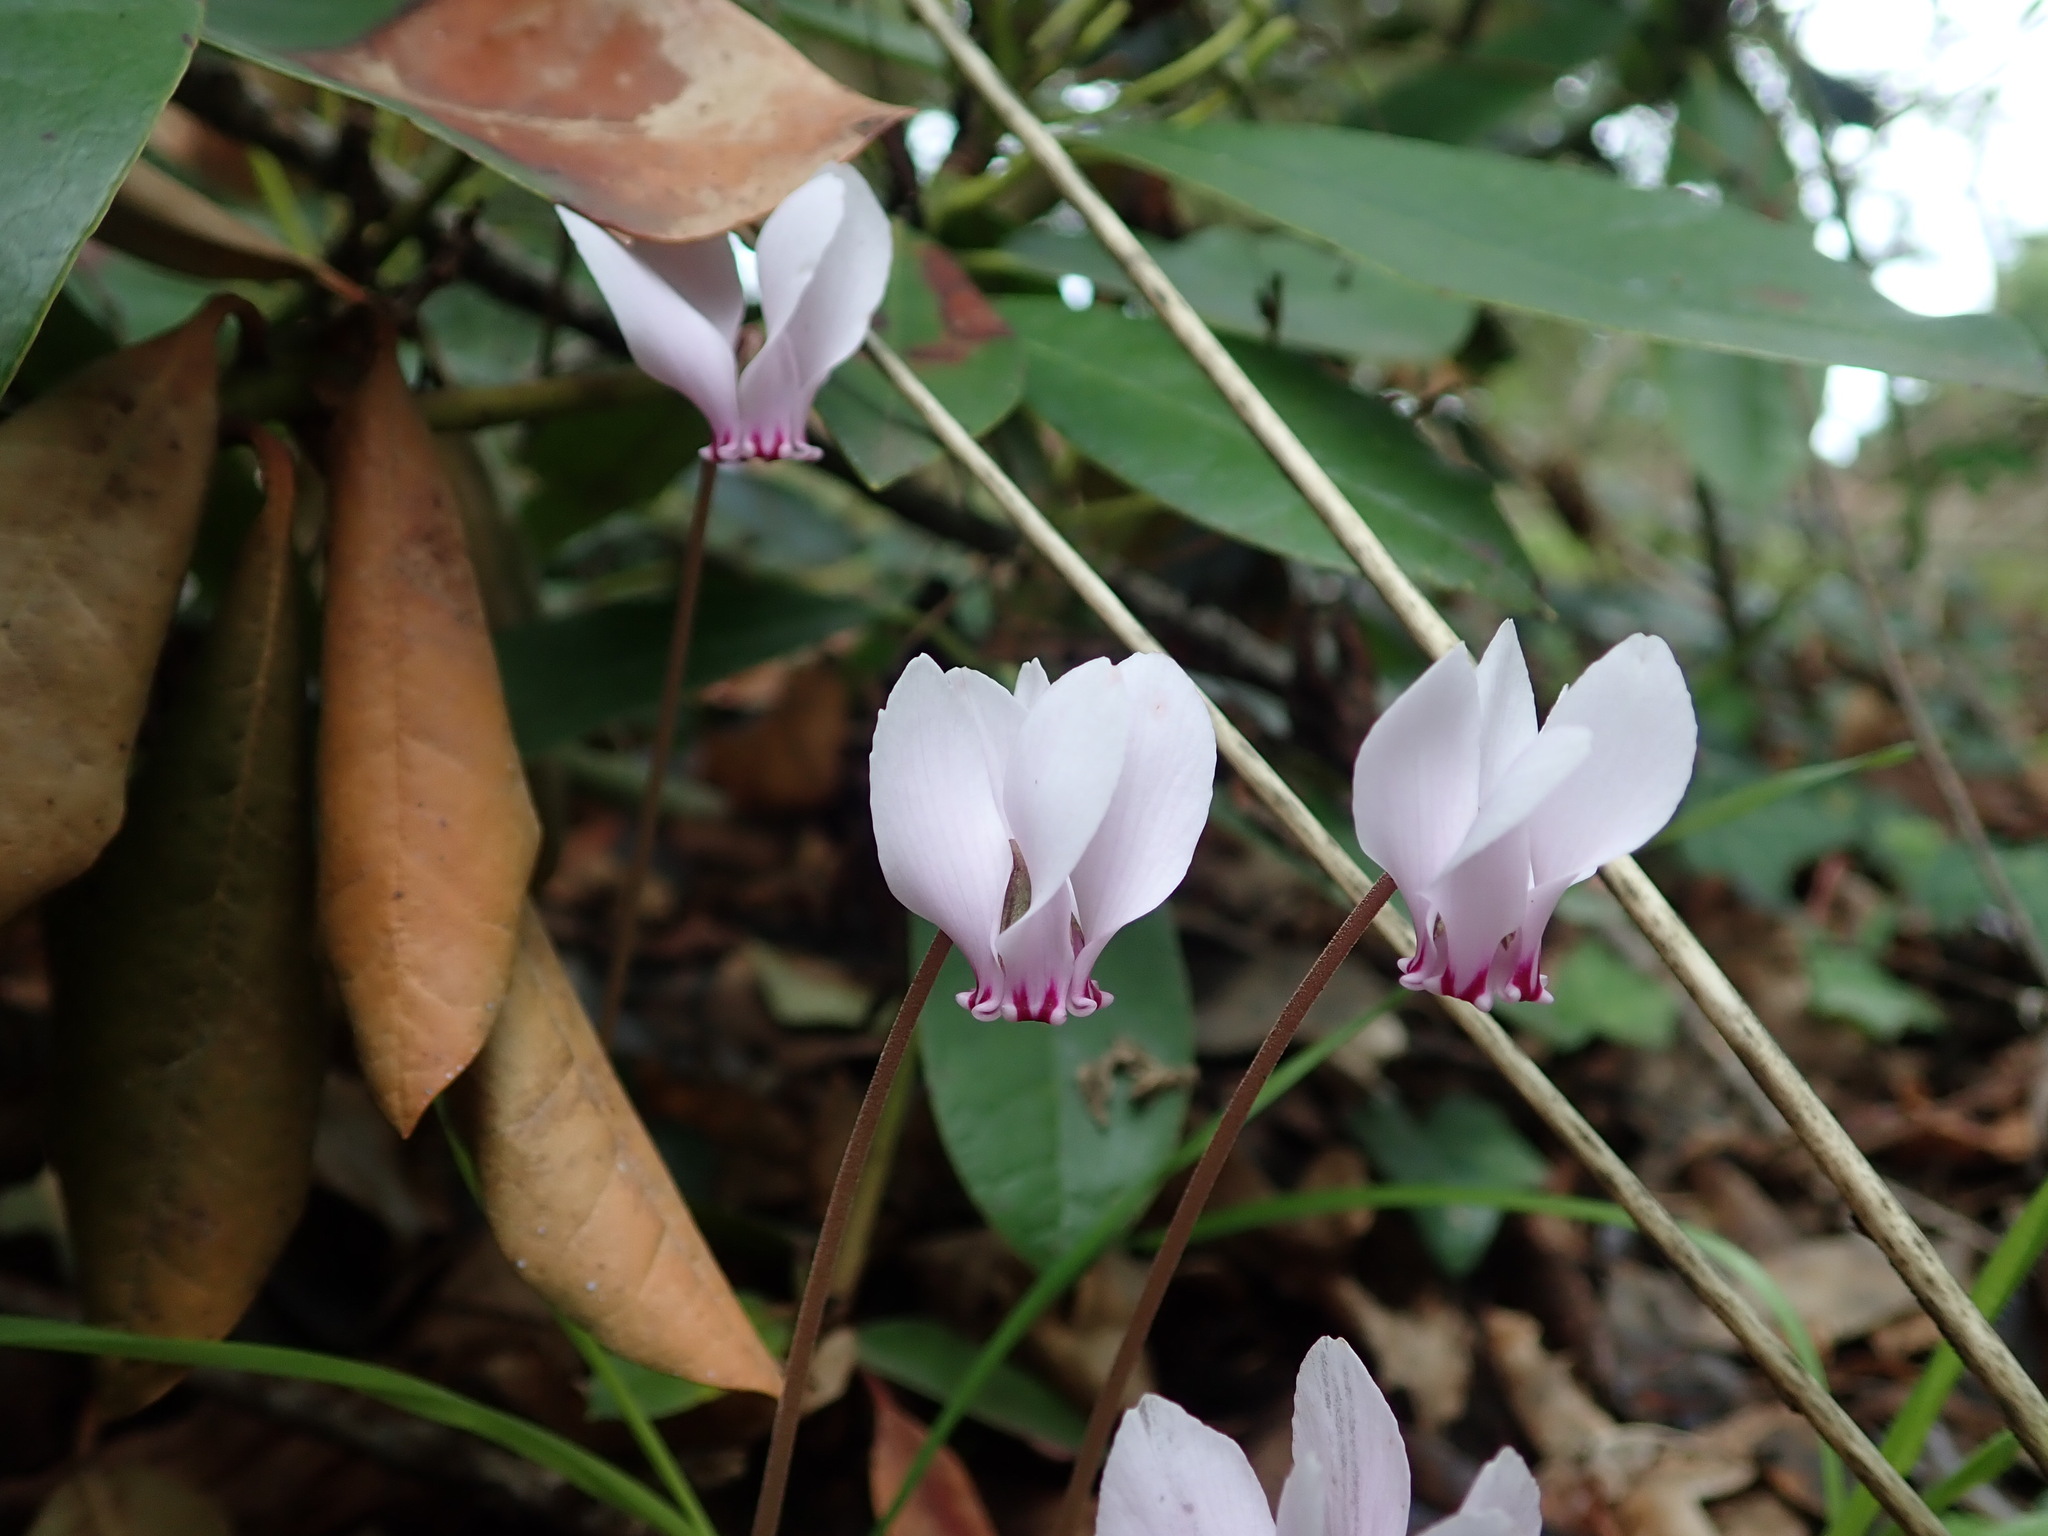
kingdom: Plantae
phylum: Tracheophyta
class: Magnoliopsida
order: Ericales
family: Primulaceae
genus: Cyclamen
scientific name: Cyclamen hederifolium
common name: Sowbread
